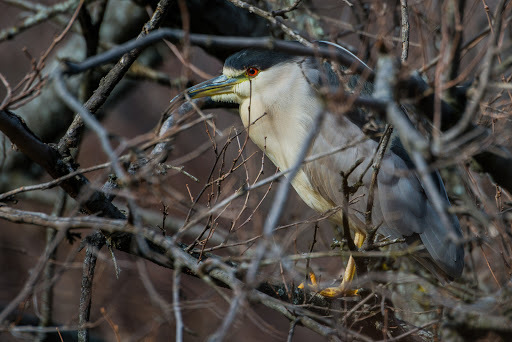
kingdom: Animalia
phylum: Chordata
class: Aves
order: Pelecaniformes
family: Ardeidae
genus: Nycticorax
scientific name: Nycticorax nycticorax
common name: Black-crowned night heron
